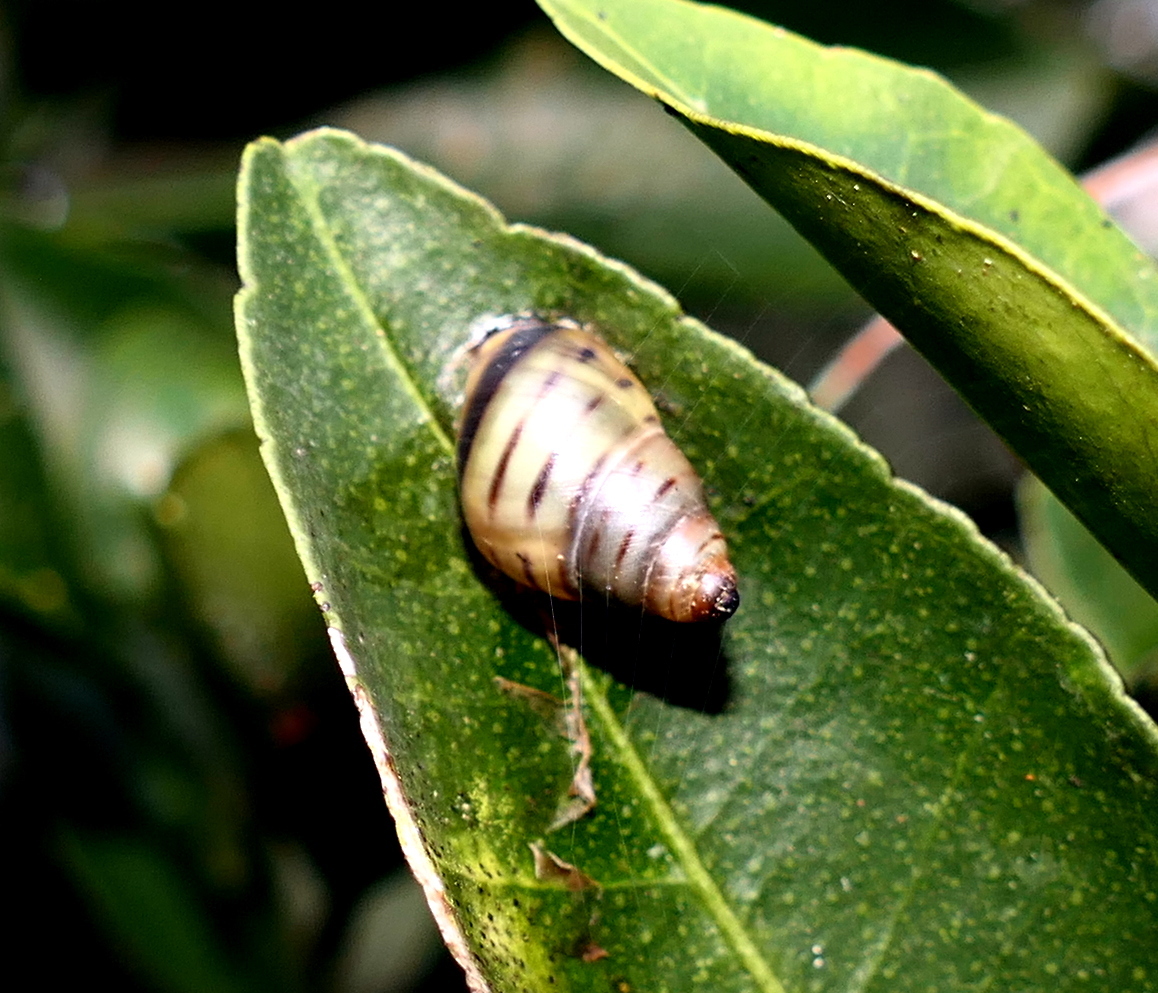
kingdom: Animalia
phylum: Mollusca
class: Gastropoda
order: Stylommatophora
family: Bulimulidae
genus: Drymaeus
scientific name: Drymaeus
